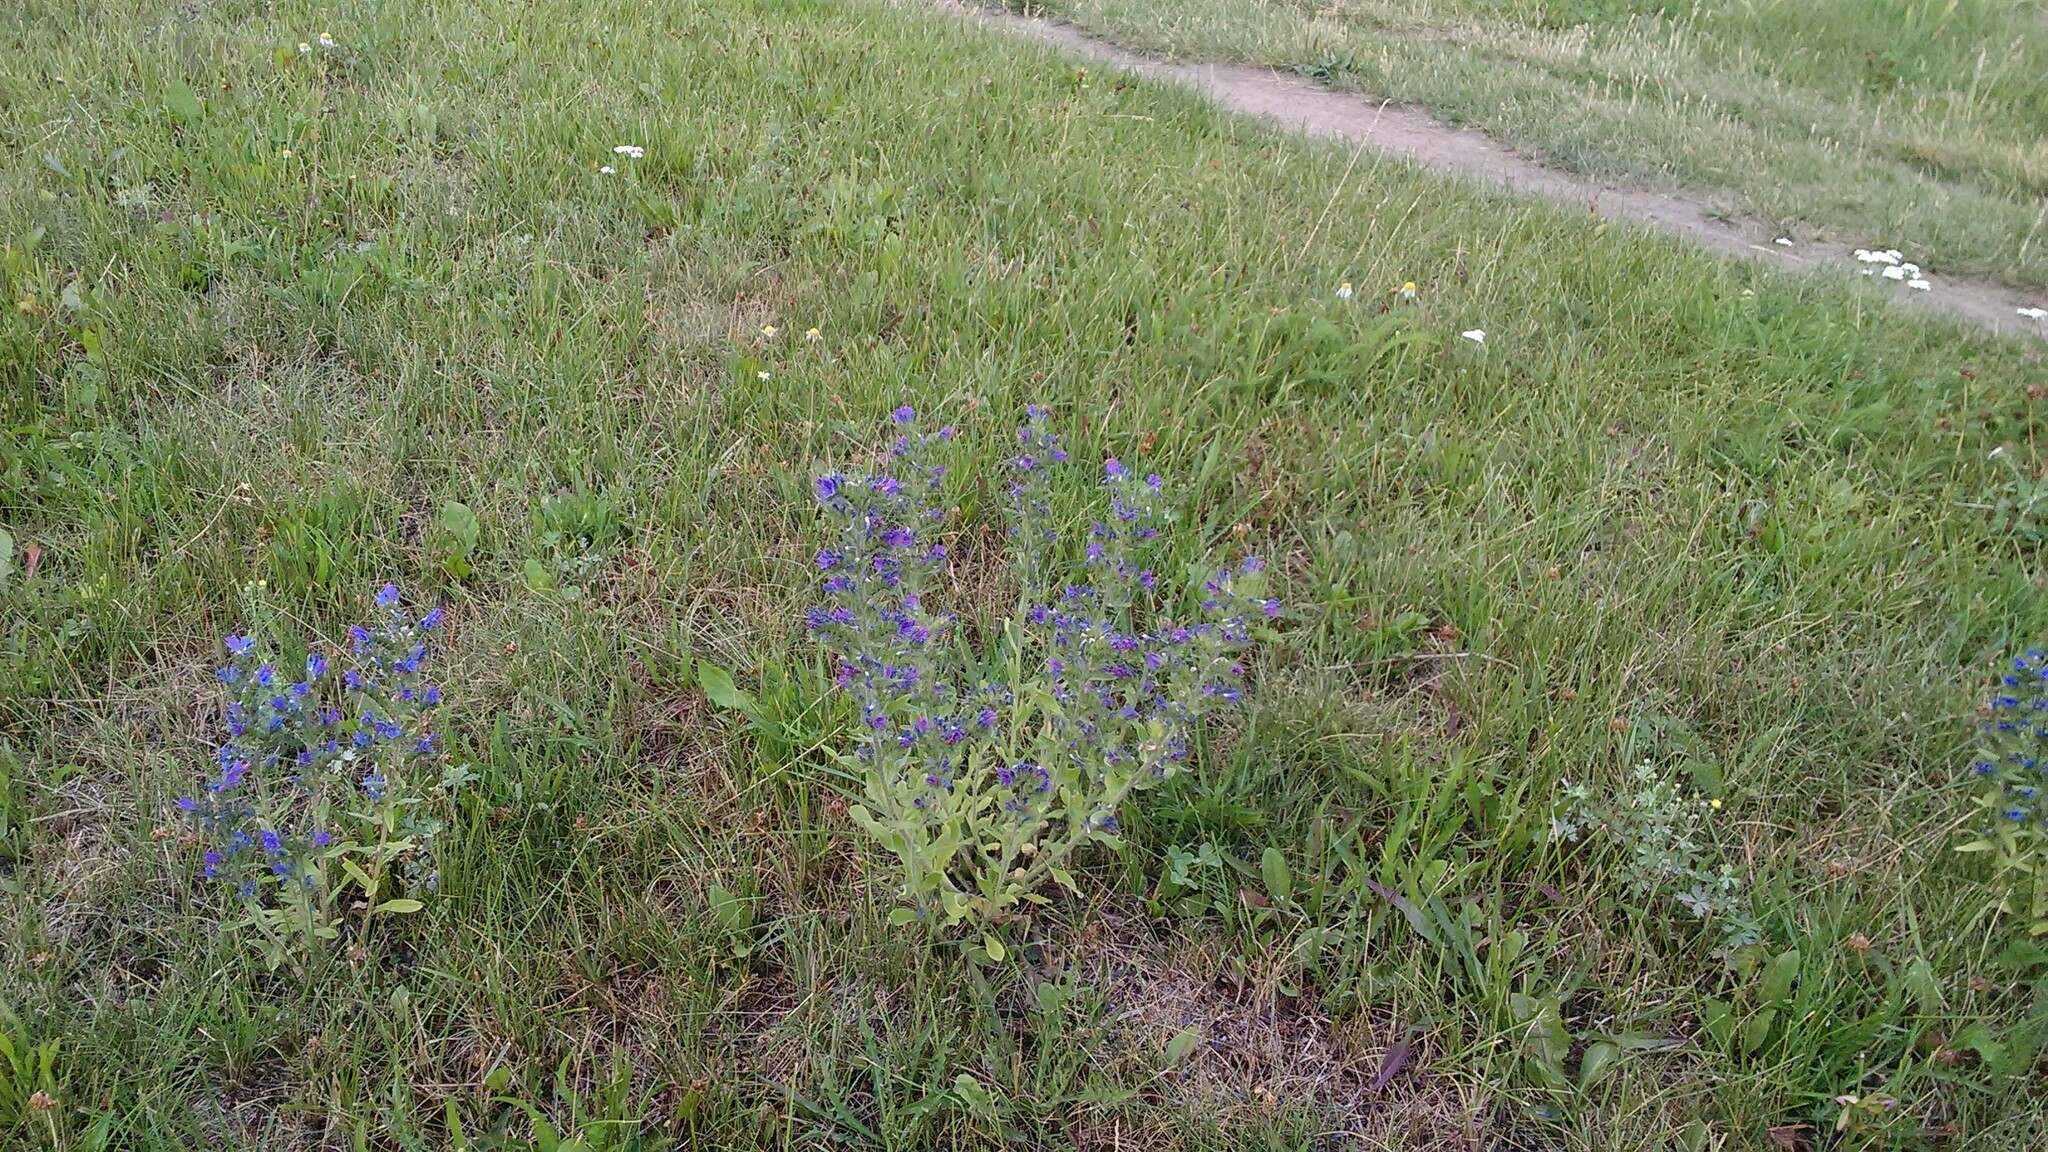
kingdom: Plantae
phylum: Tracheophyta
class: Magnoliopsida
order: Boraginales
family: Boraginaceae
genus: Echium
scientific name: Echium vulgare
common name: Common viper's bugloss
